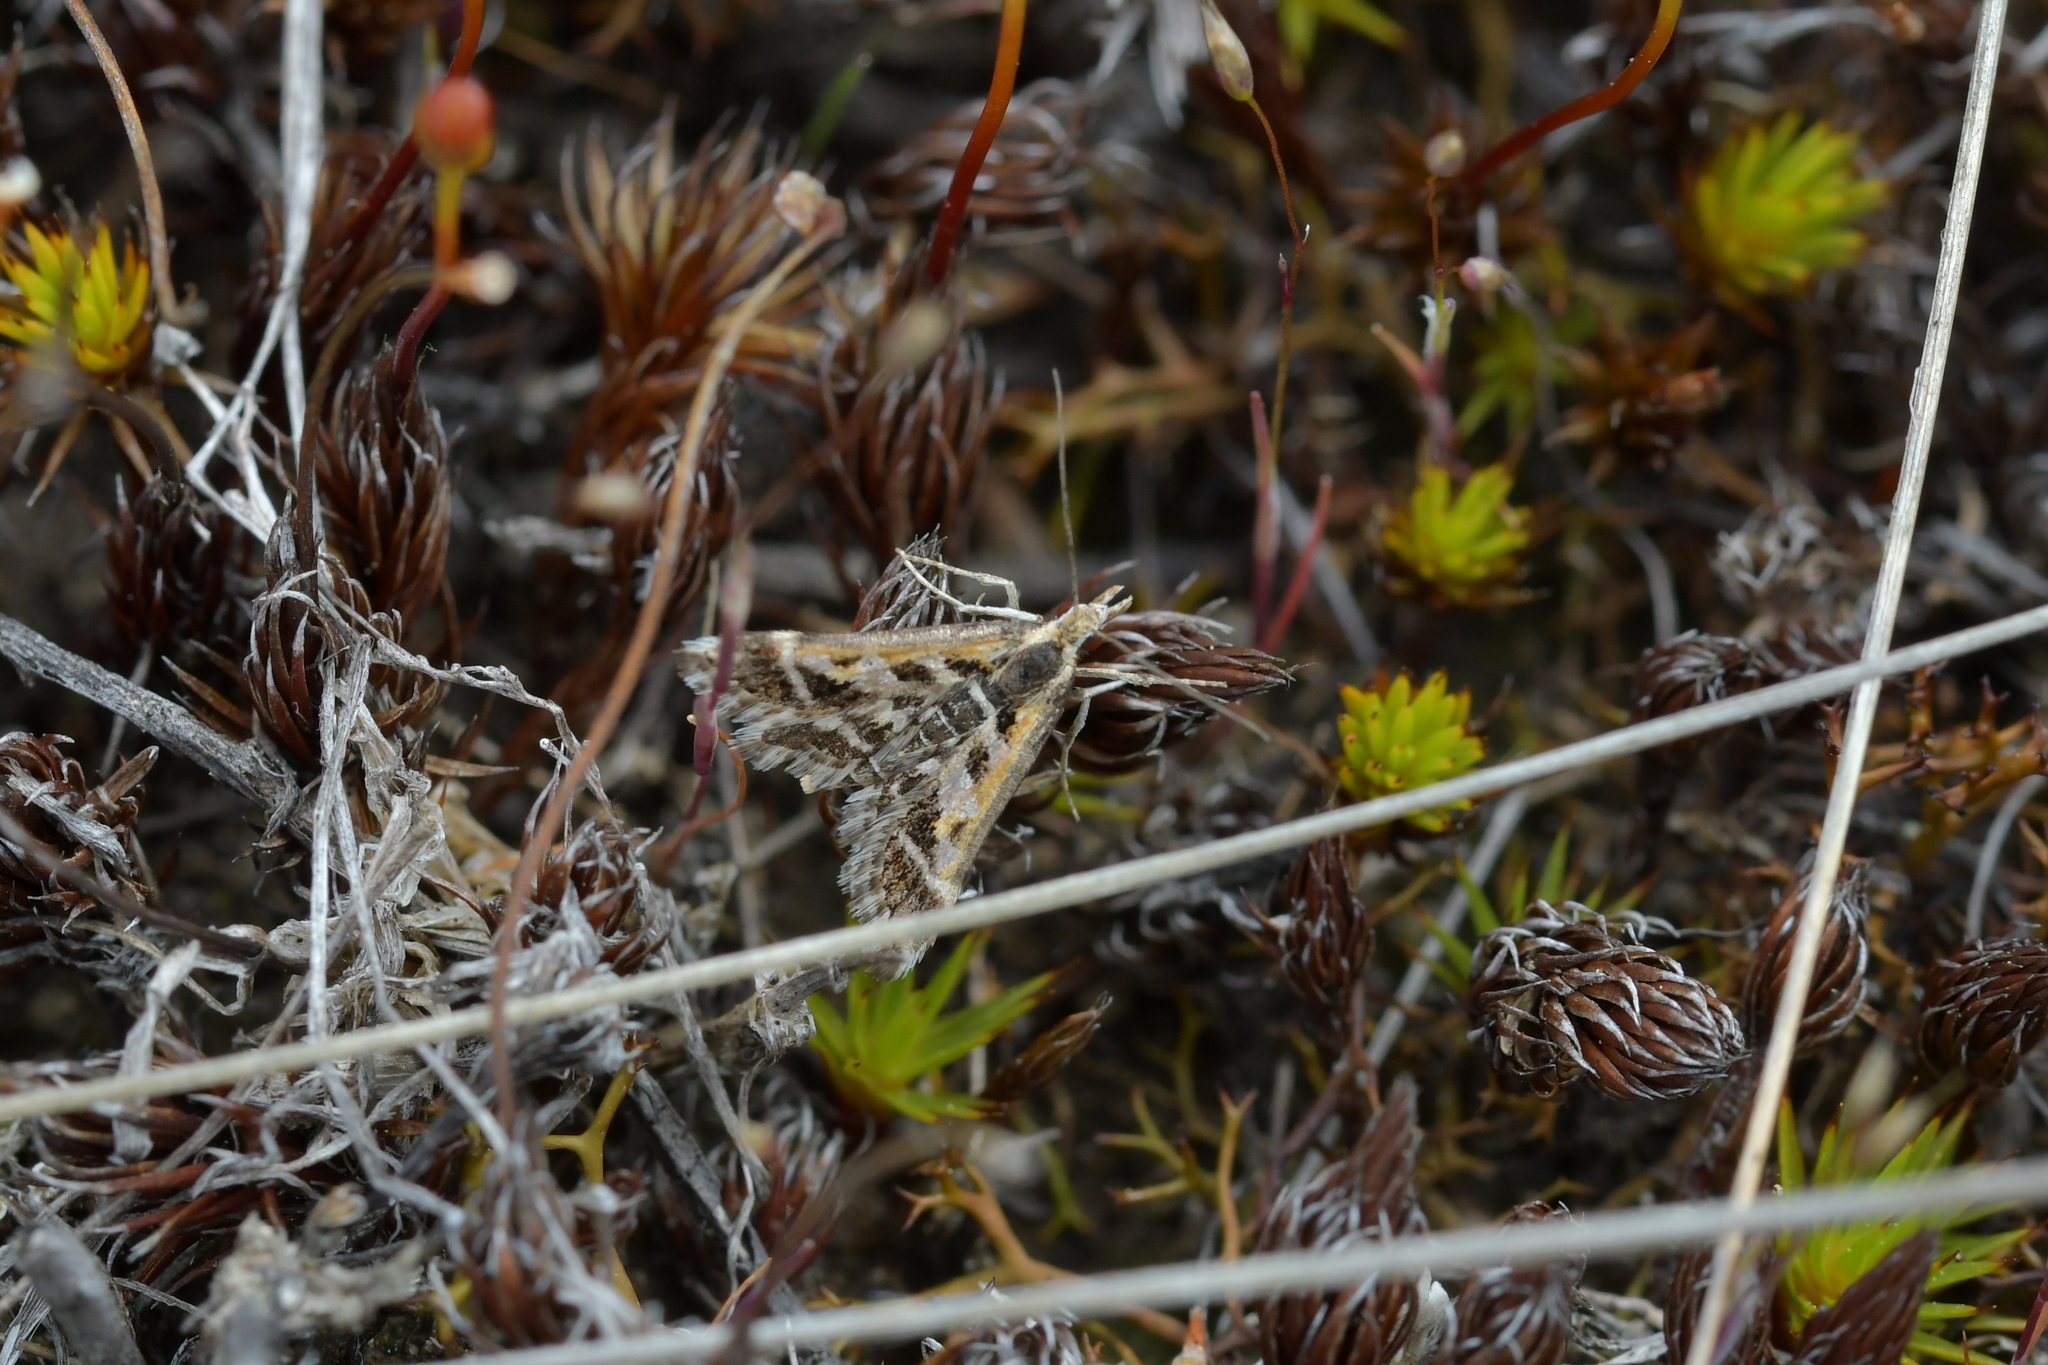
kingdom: Animalia
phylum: Arthropoda
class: Insecta
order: Lepidoptera
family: Crambidae
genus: Diasemia
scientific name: Diasemia grammalis
